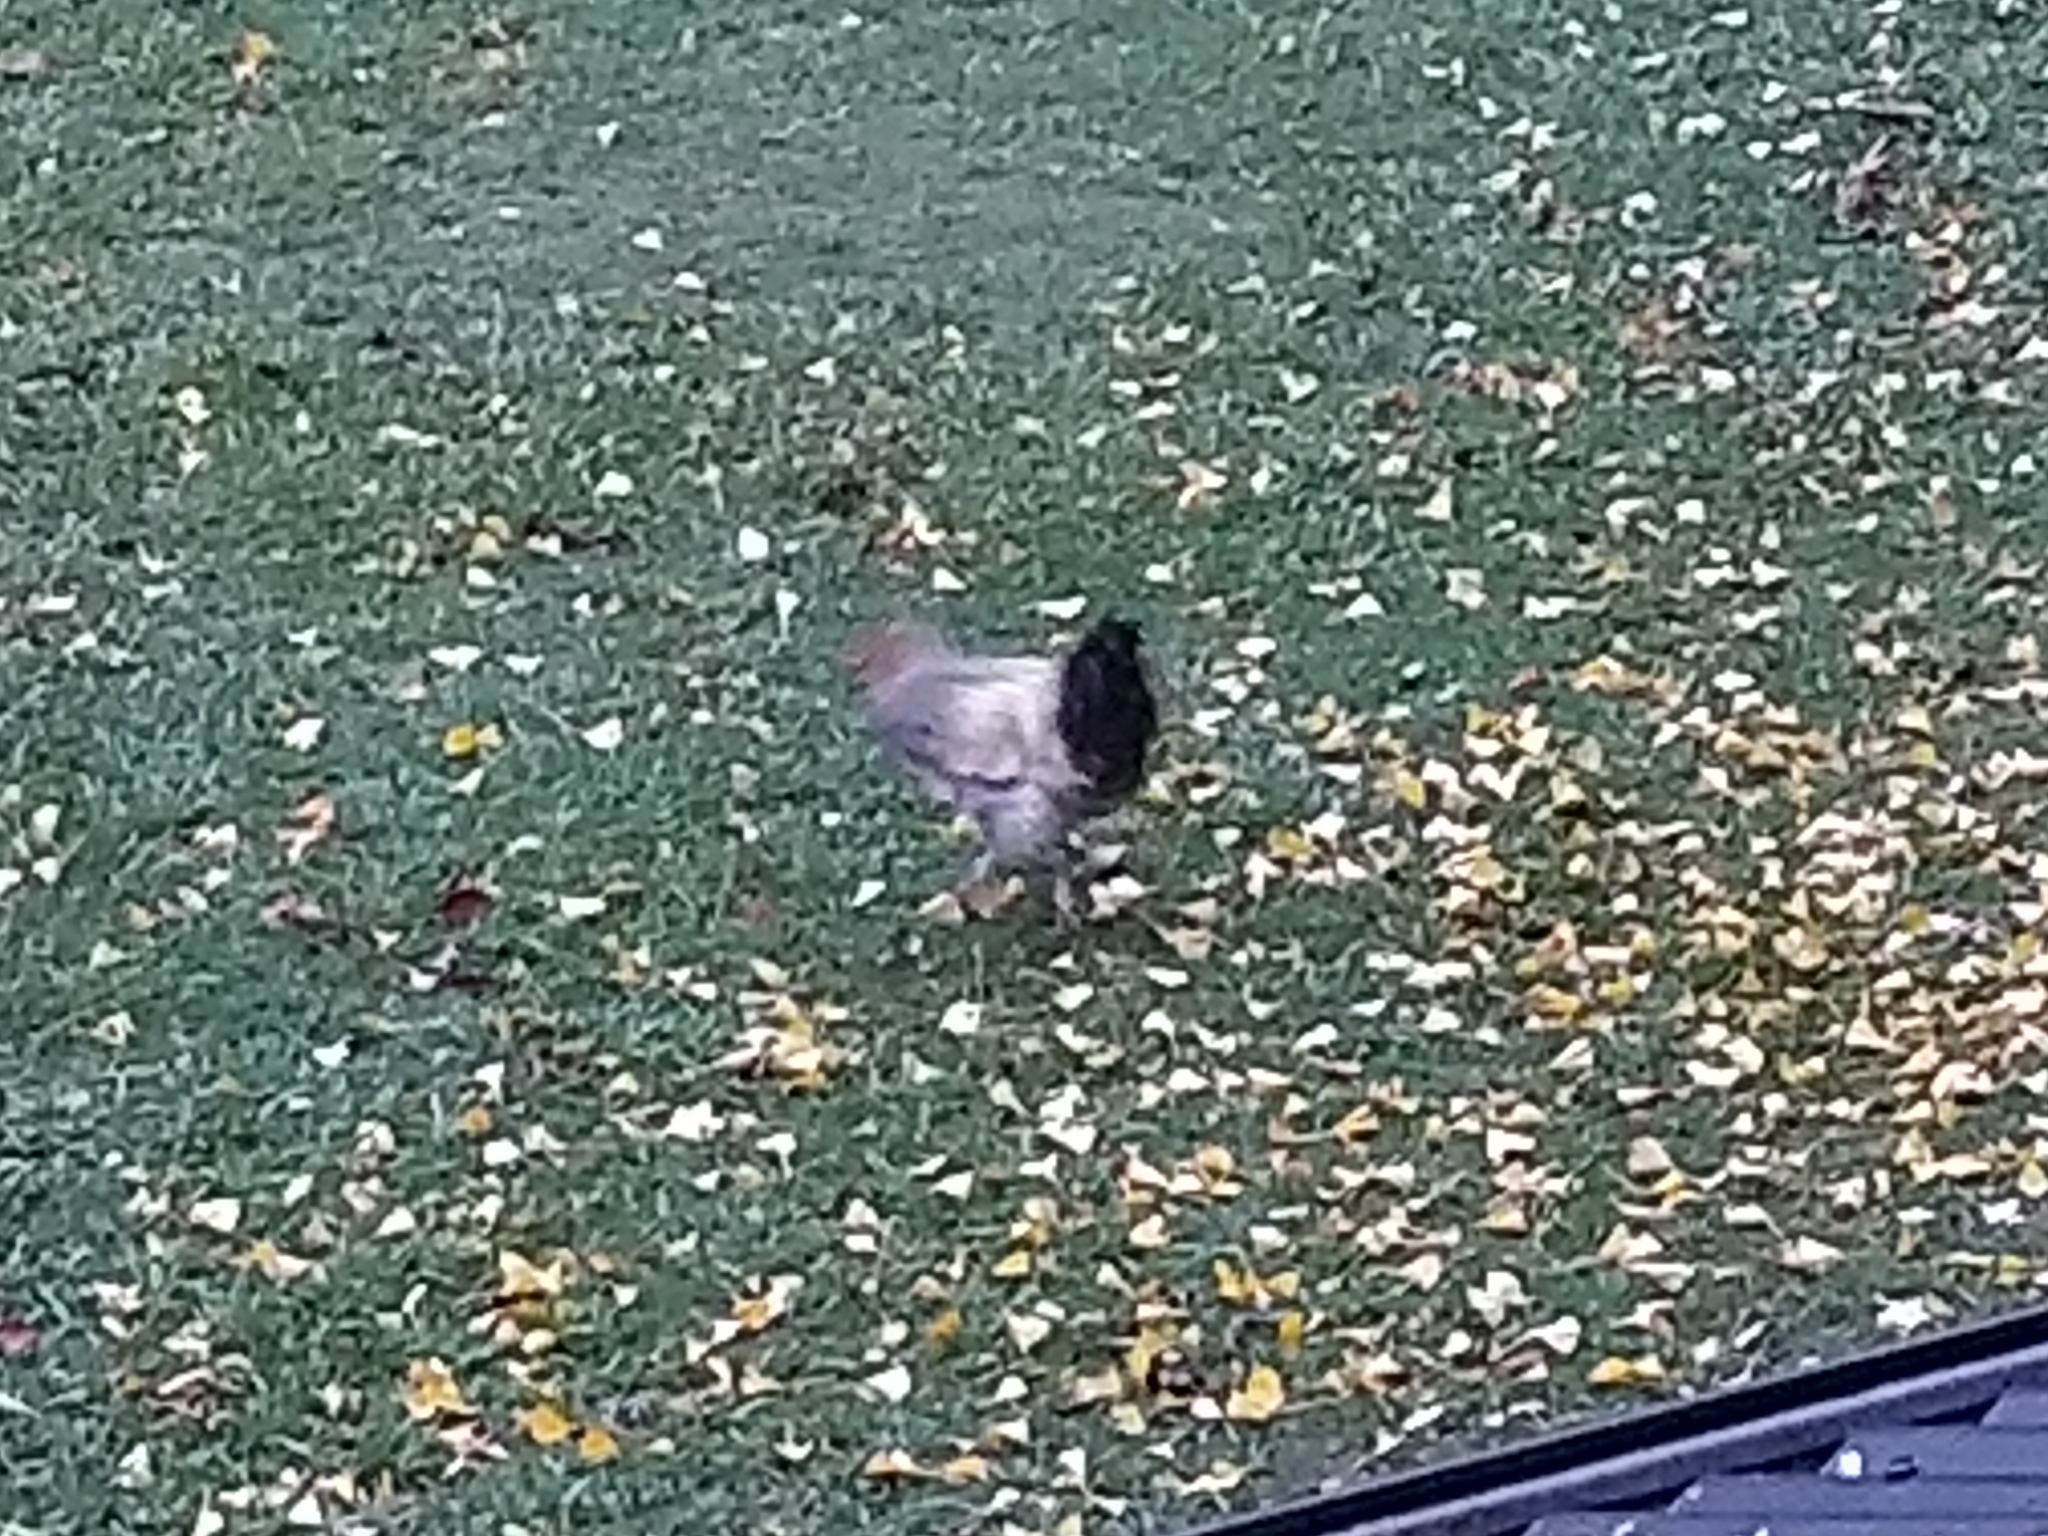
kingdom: Animalia
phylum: Chordata
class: Aves
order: Galliformes
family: Phasianidae
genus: Gallus
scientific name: Gallus gallus
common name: Red junglefowl
